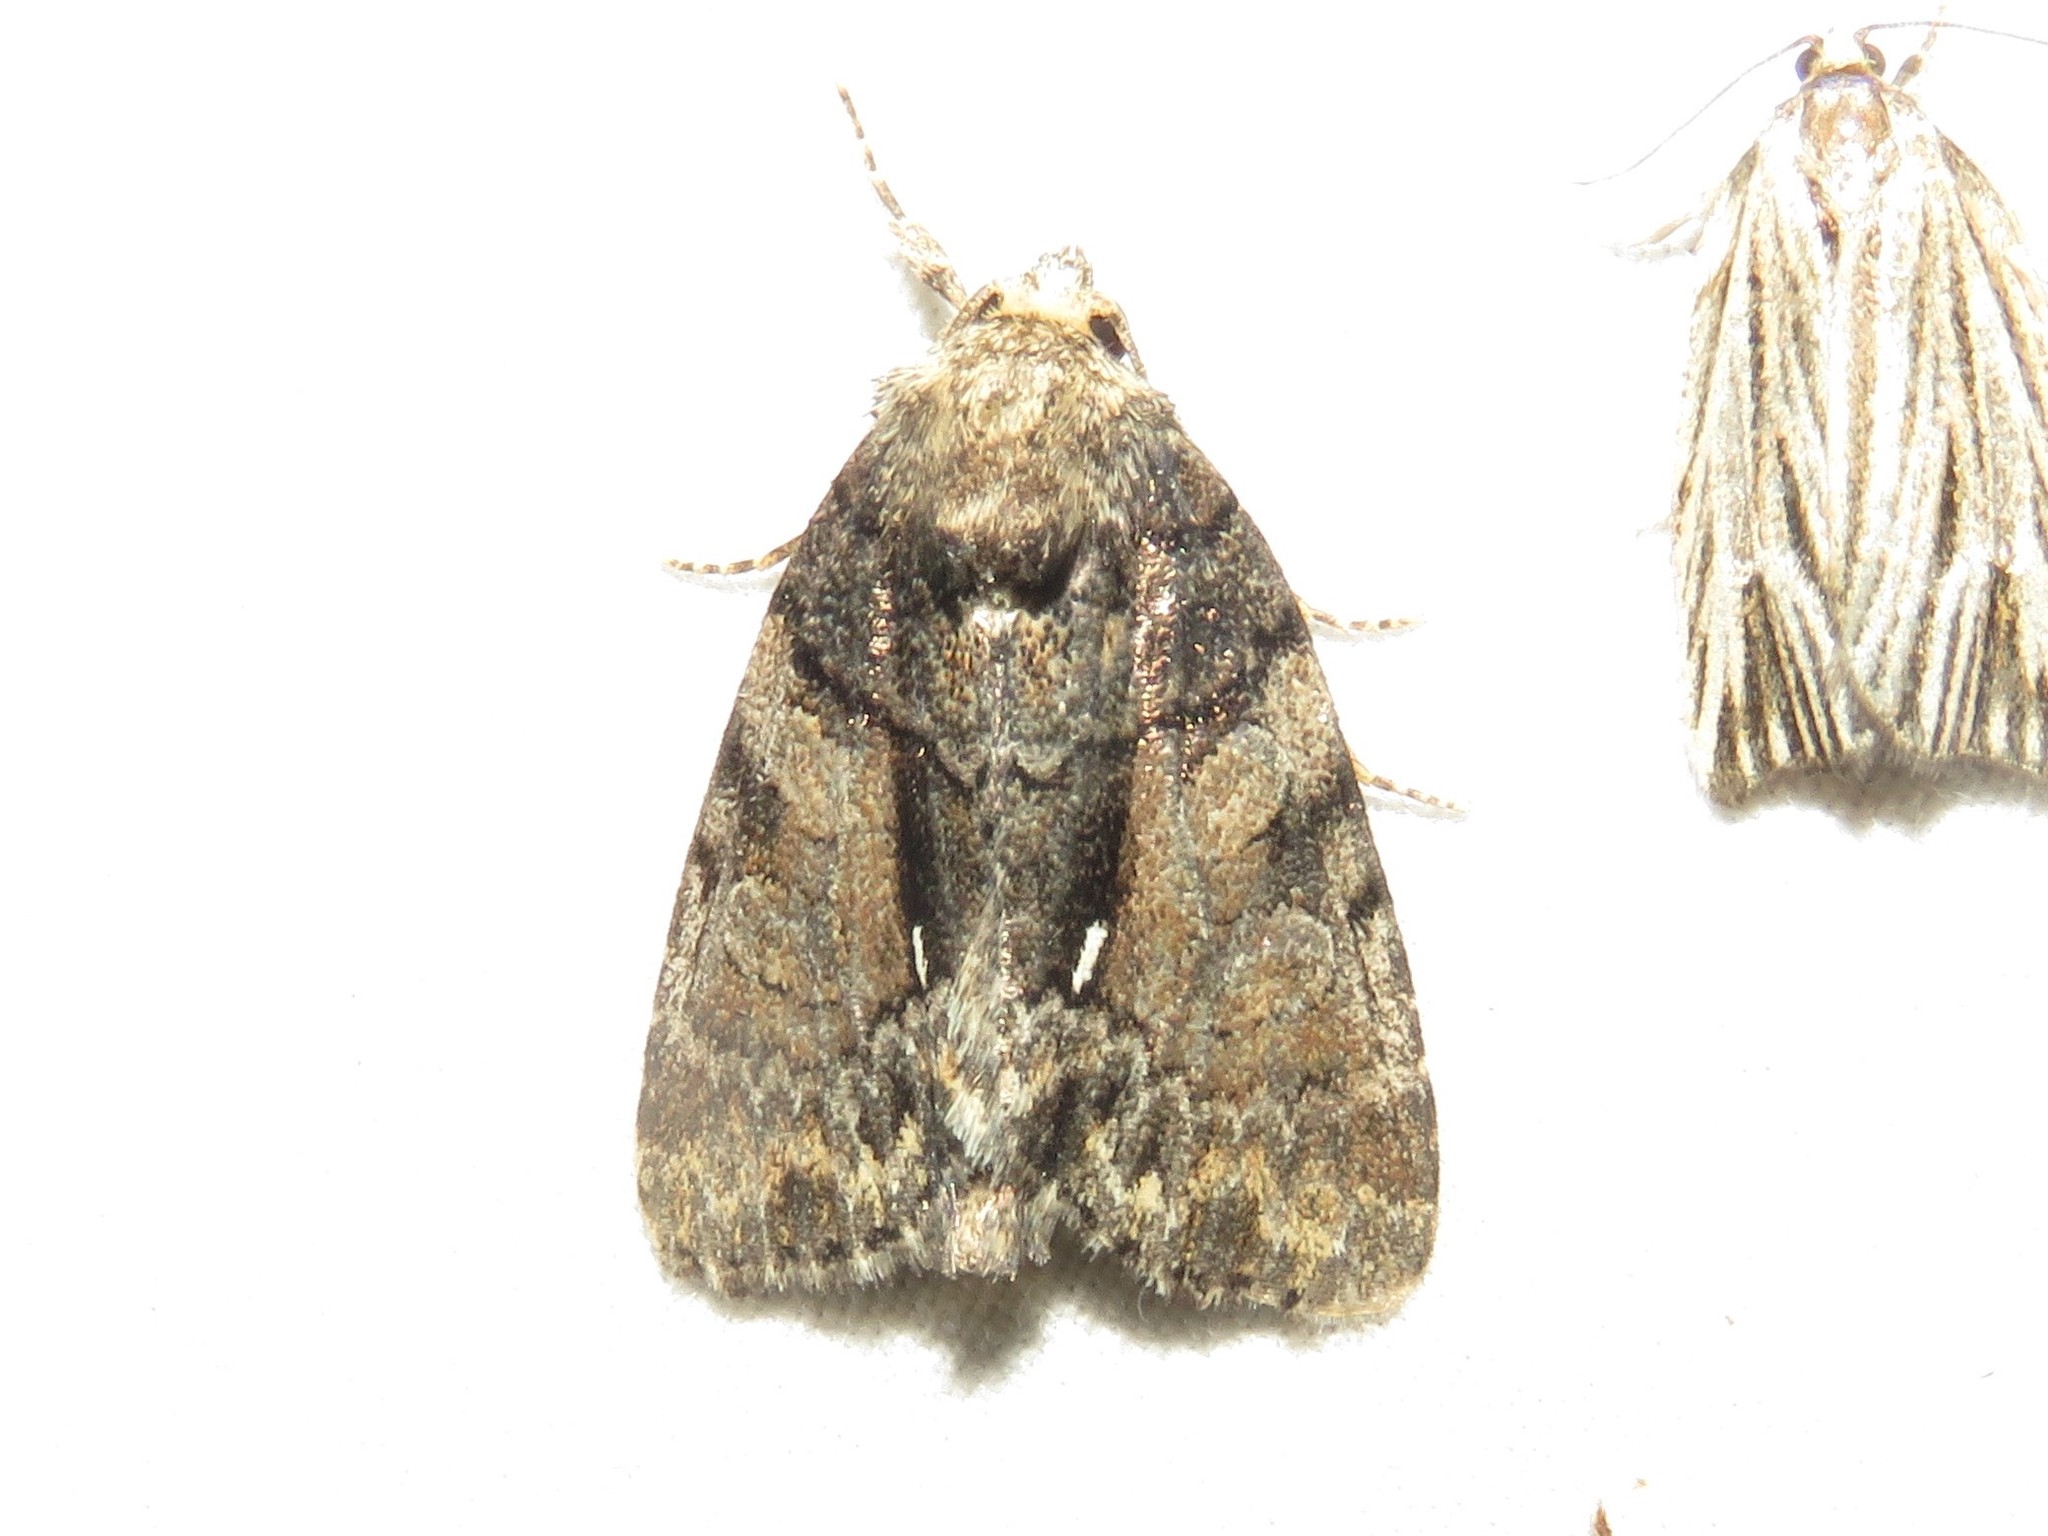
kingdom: Animalia
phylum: Arthropoda
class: Insecta
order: Lepidoptera
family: Noctuidae
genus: Chytonix
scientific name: Chytonix palliatricula
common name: Cloaked marvel
